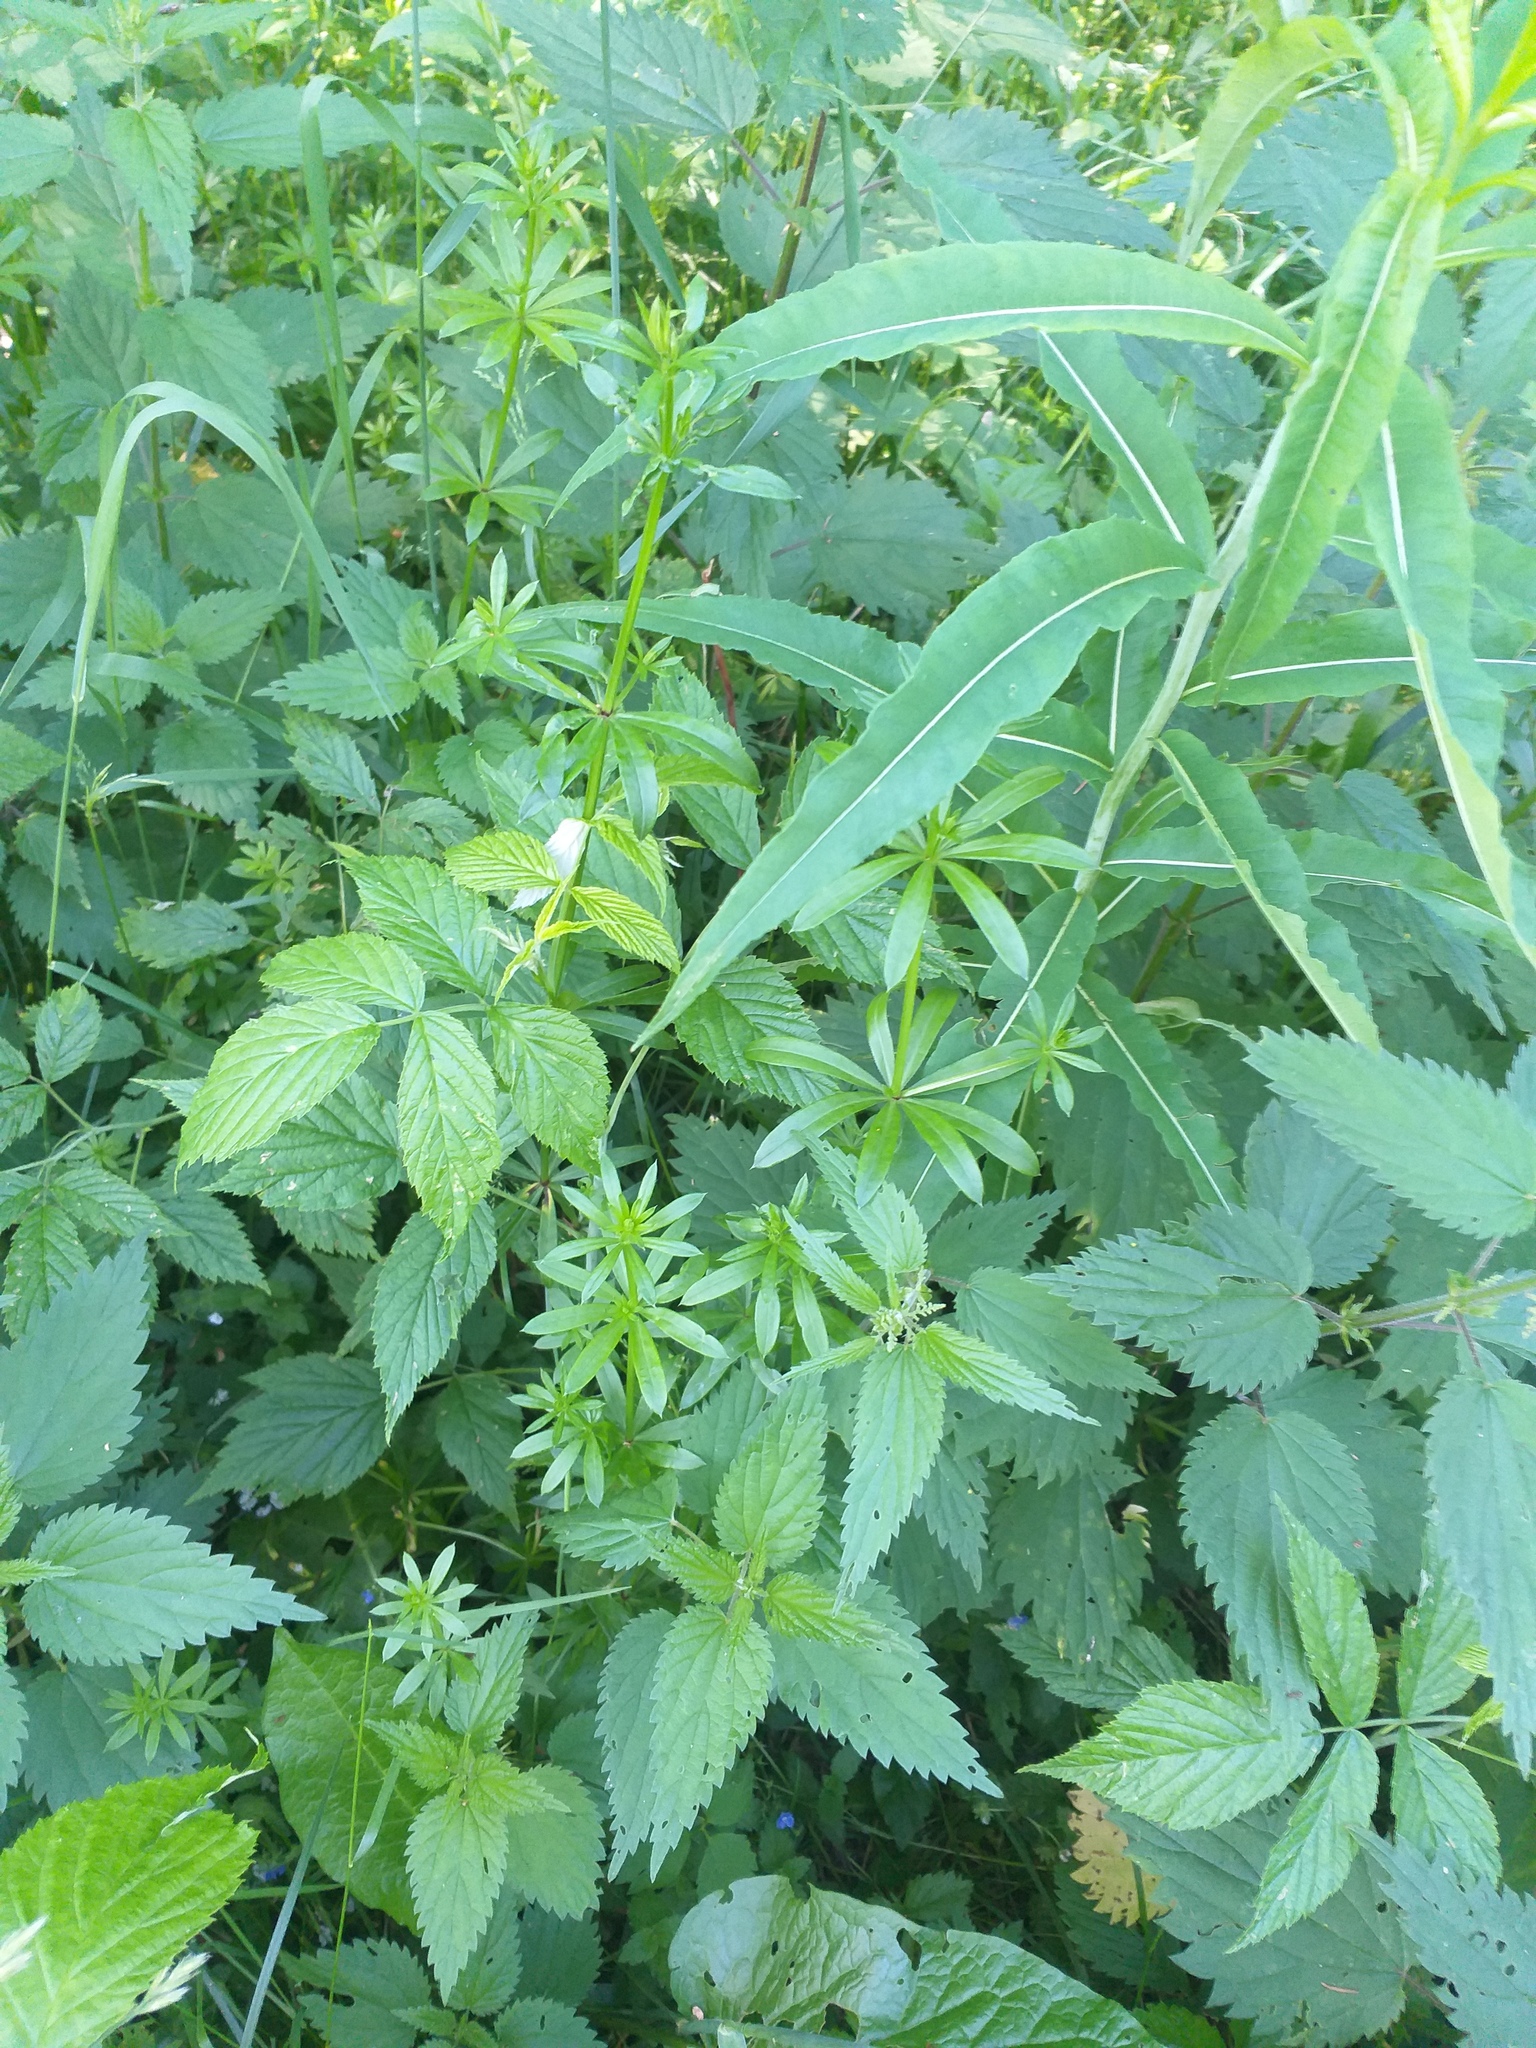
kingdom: Plantae
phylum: Tracheophyta
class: Magnoliopsida
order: Gentianales
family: Rubiaceae
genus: Galium
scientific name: Galium rivale
